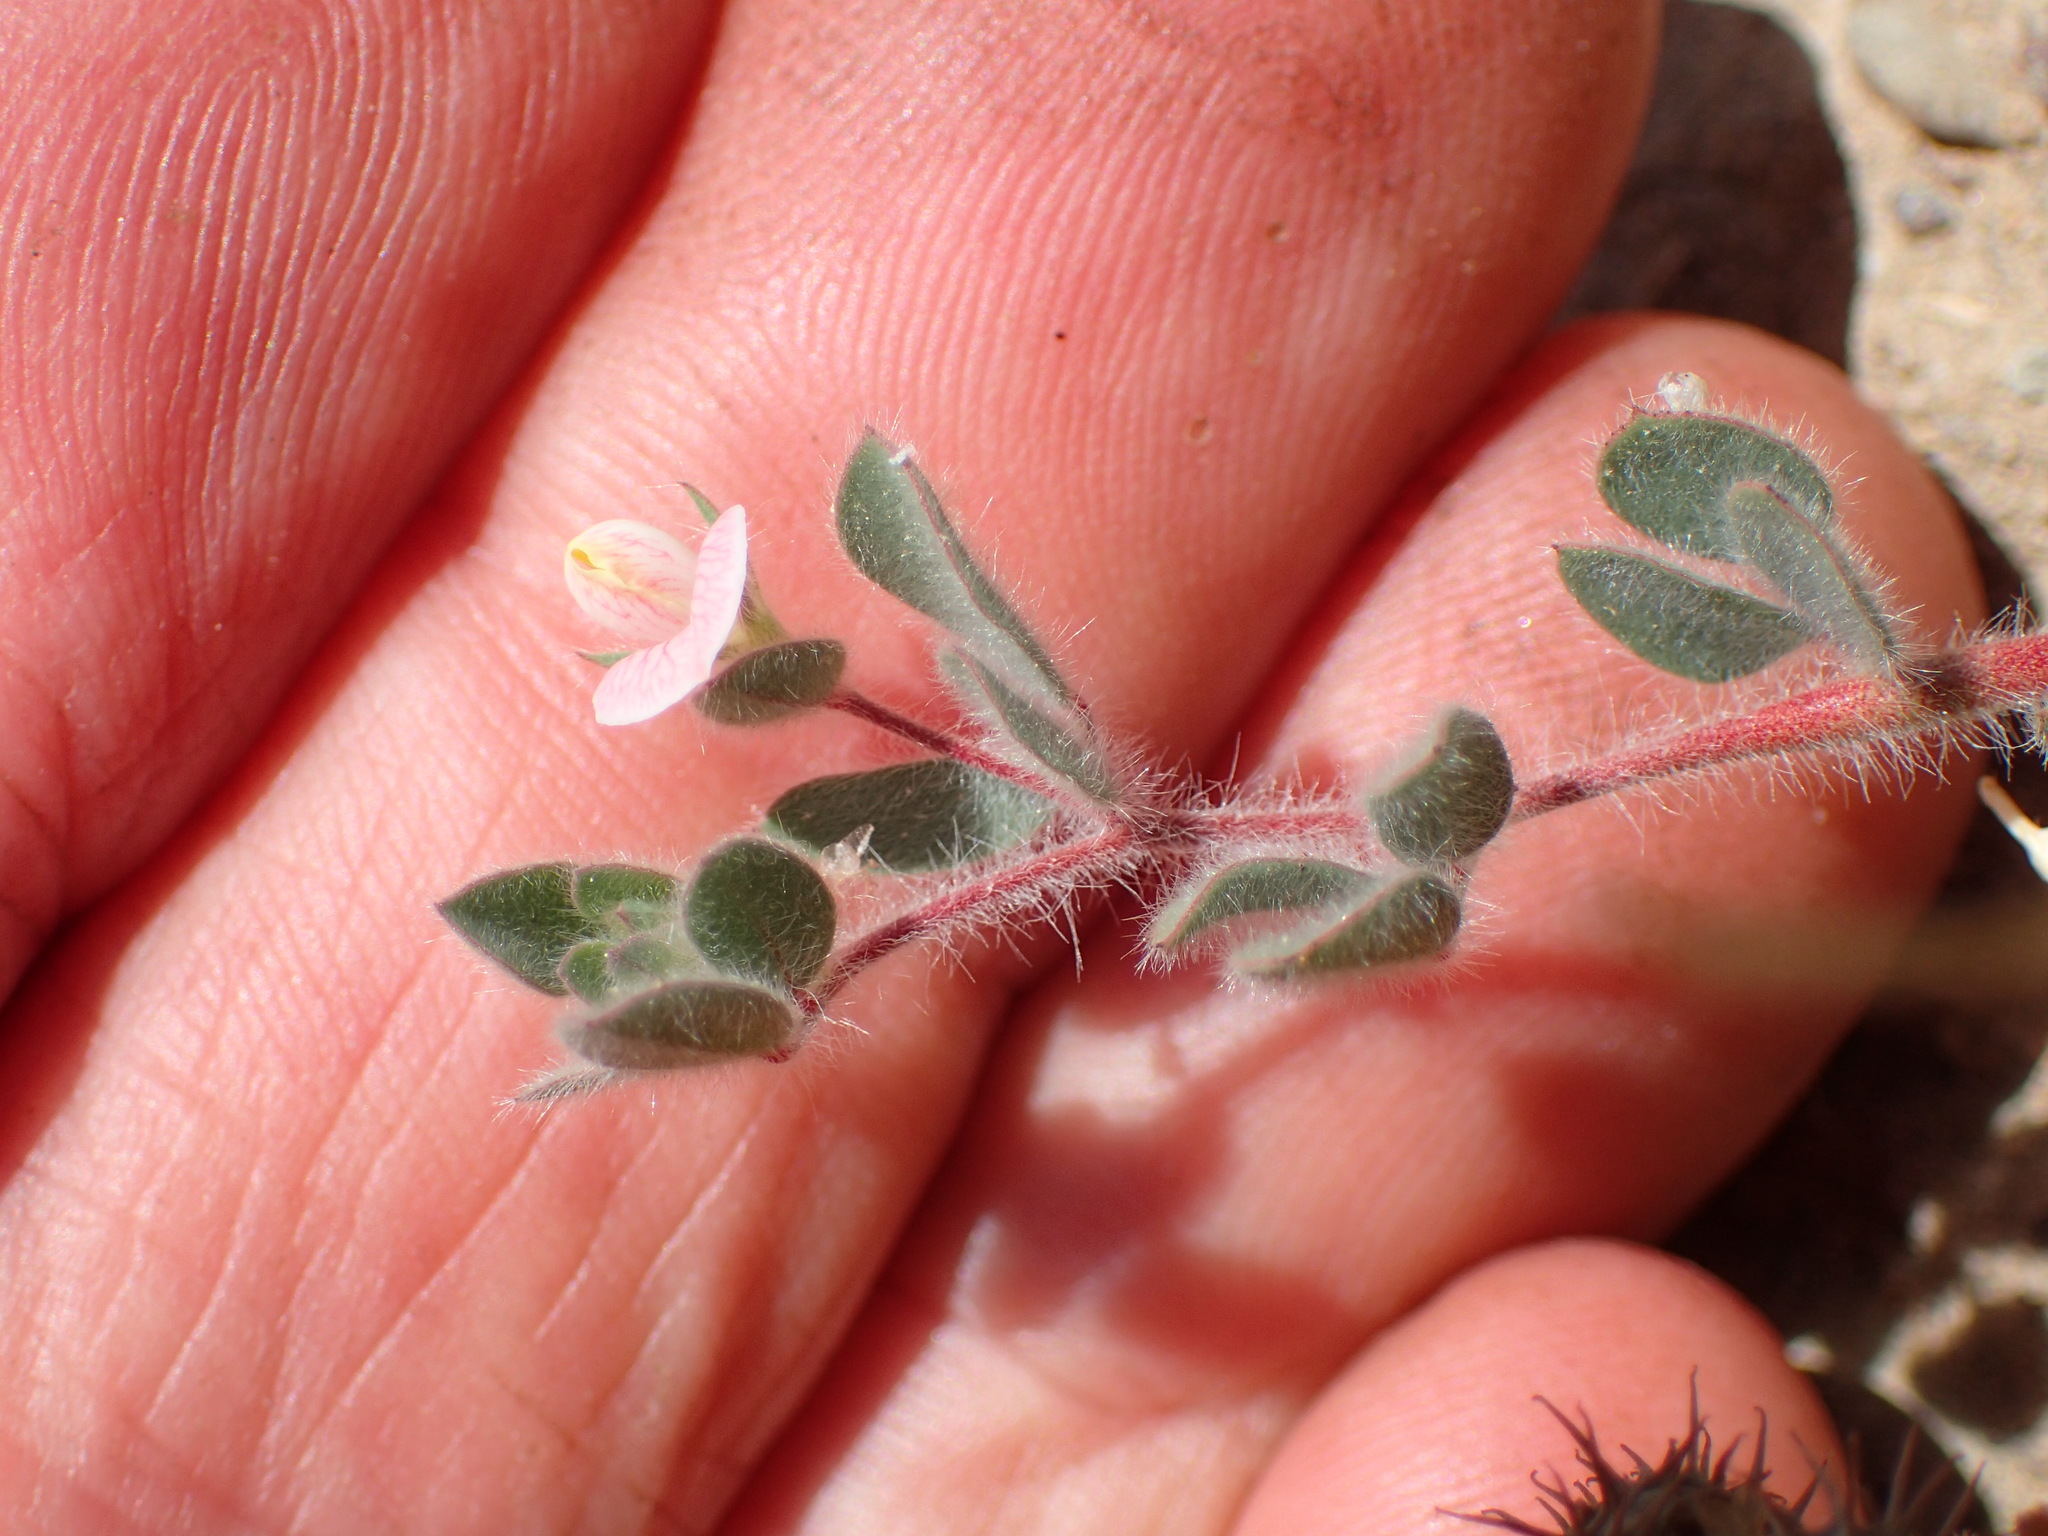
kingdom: Plantae
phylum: Tracheophyta
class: Magnoliopsida
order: Fabales
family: Fabaceae
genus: Acmispon
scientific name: Acmispon americanus
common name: American bird's-foot trefoil
